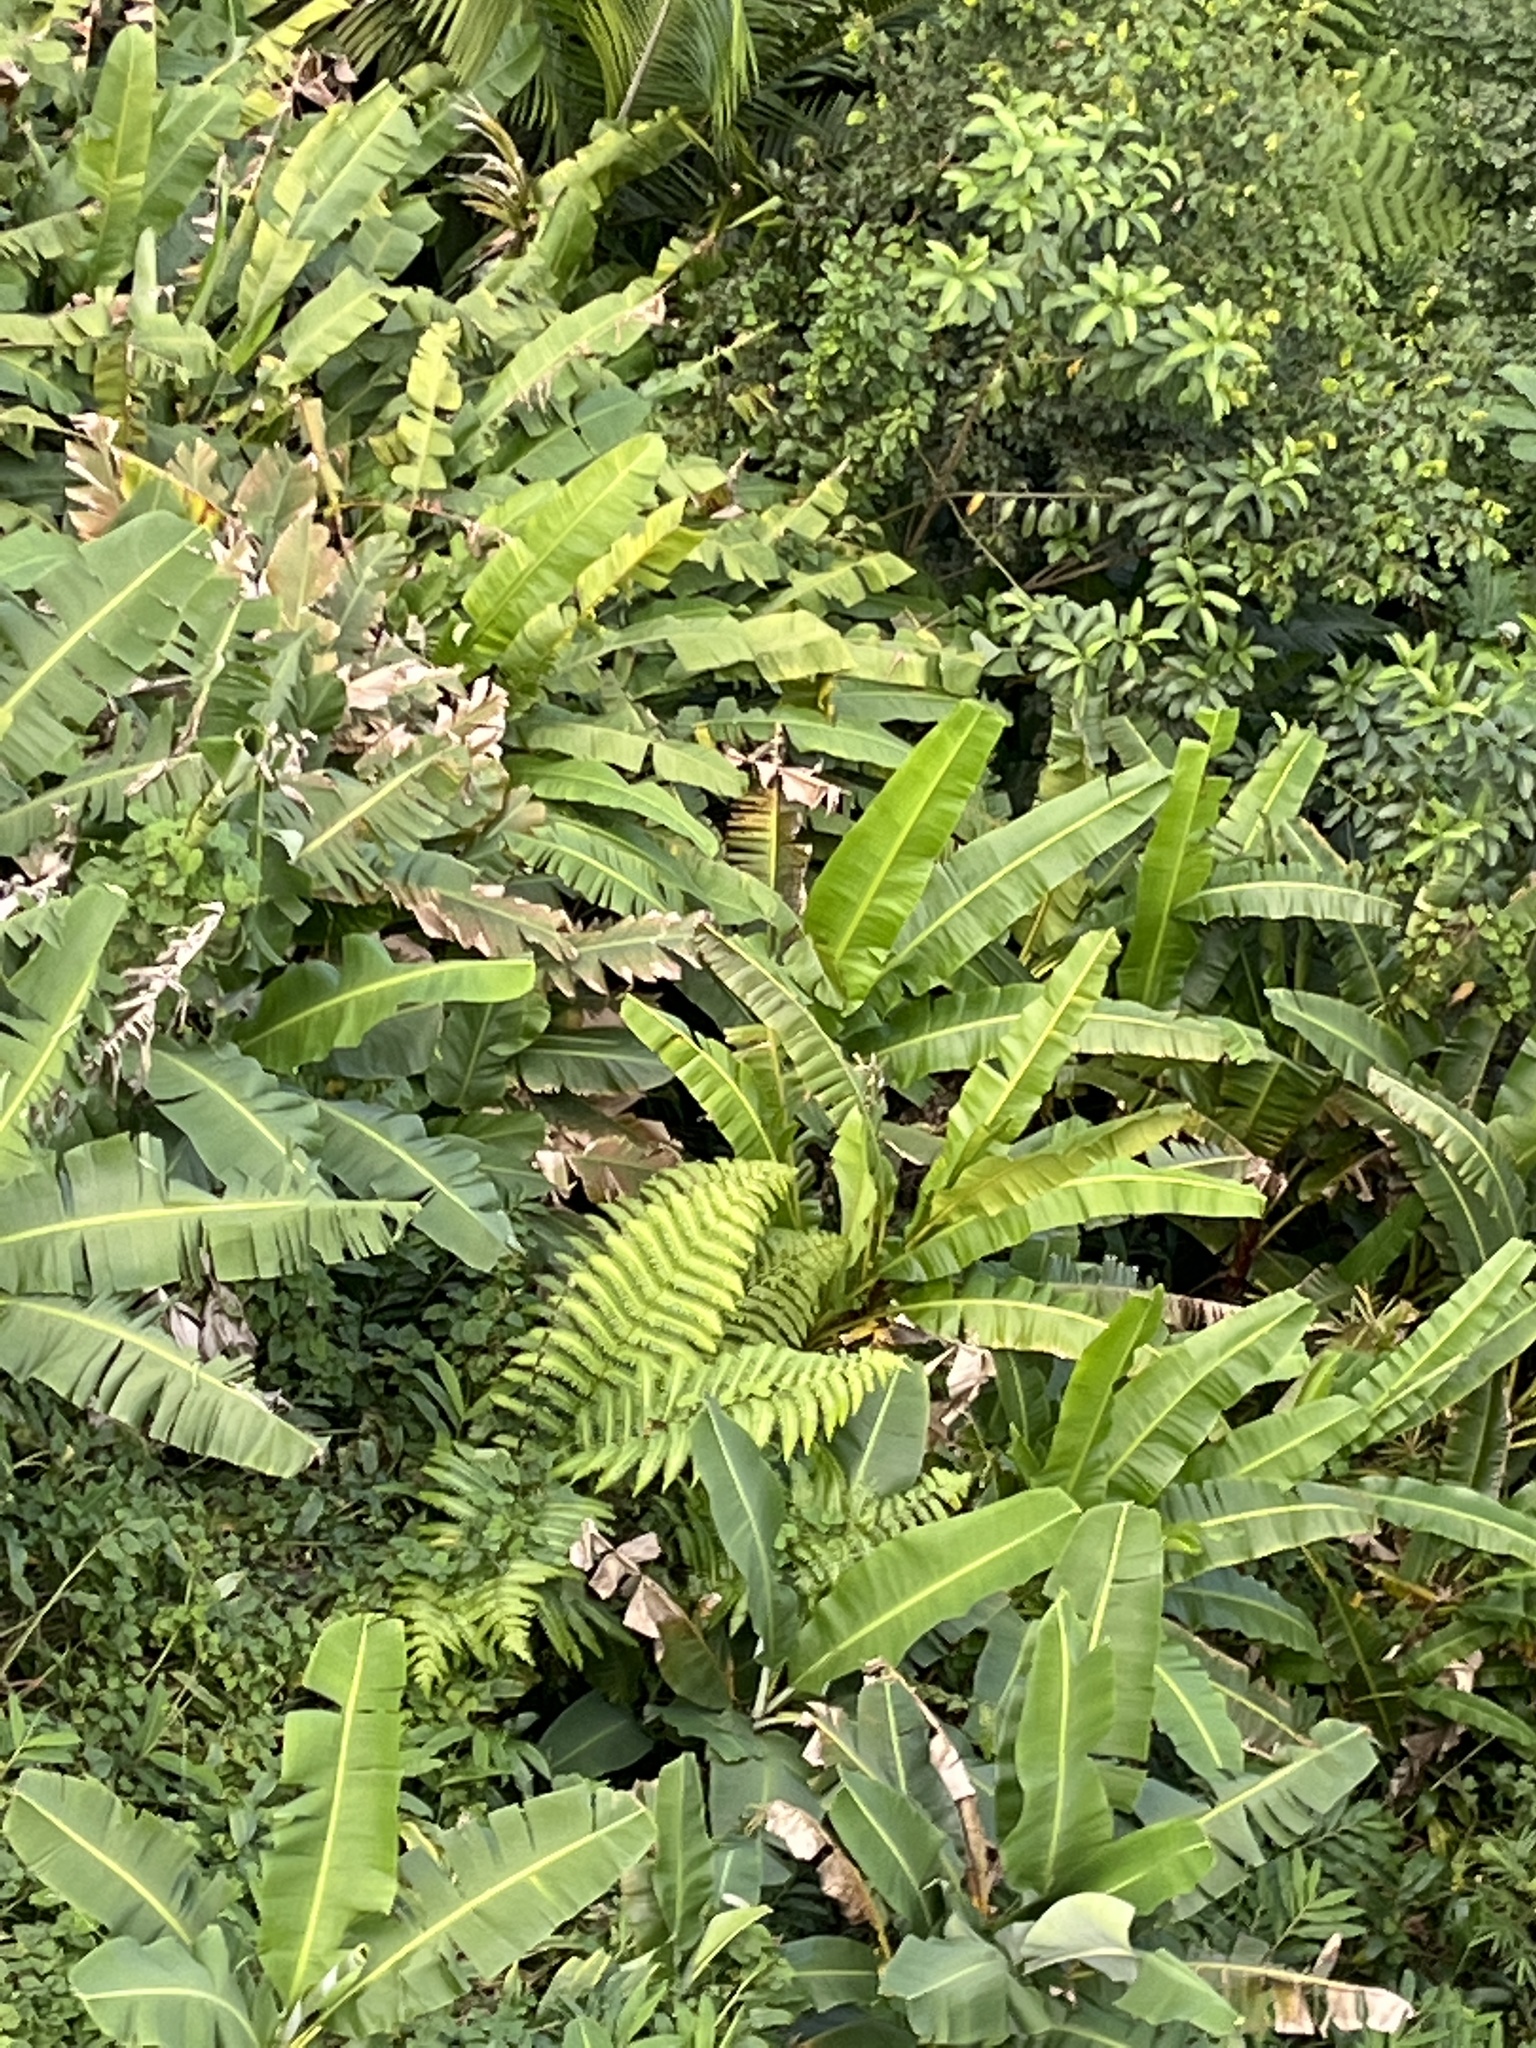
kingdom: Plantae
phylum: Tracheophyta
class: Liliopsida
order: Zingiberales
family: Heliconiaceae
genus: Heliconia
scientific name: Heliconia caribaea
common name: Wild plantain
